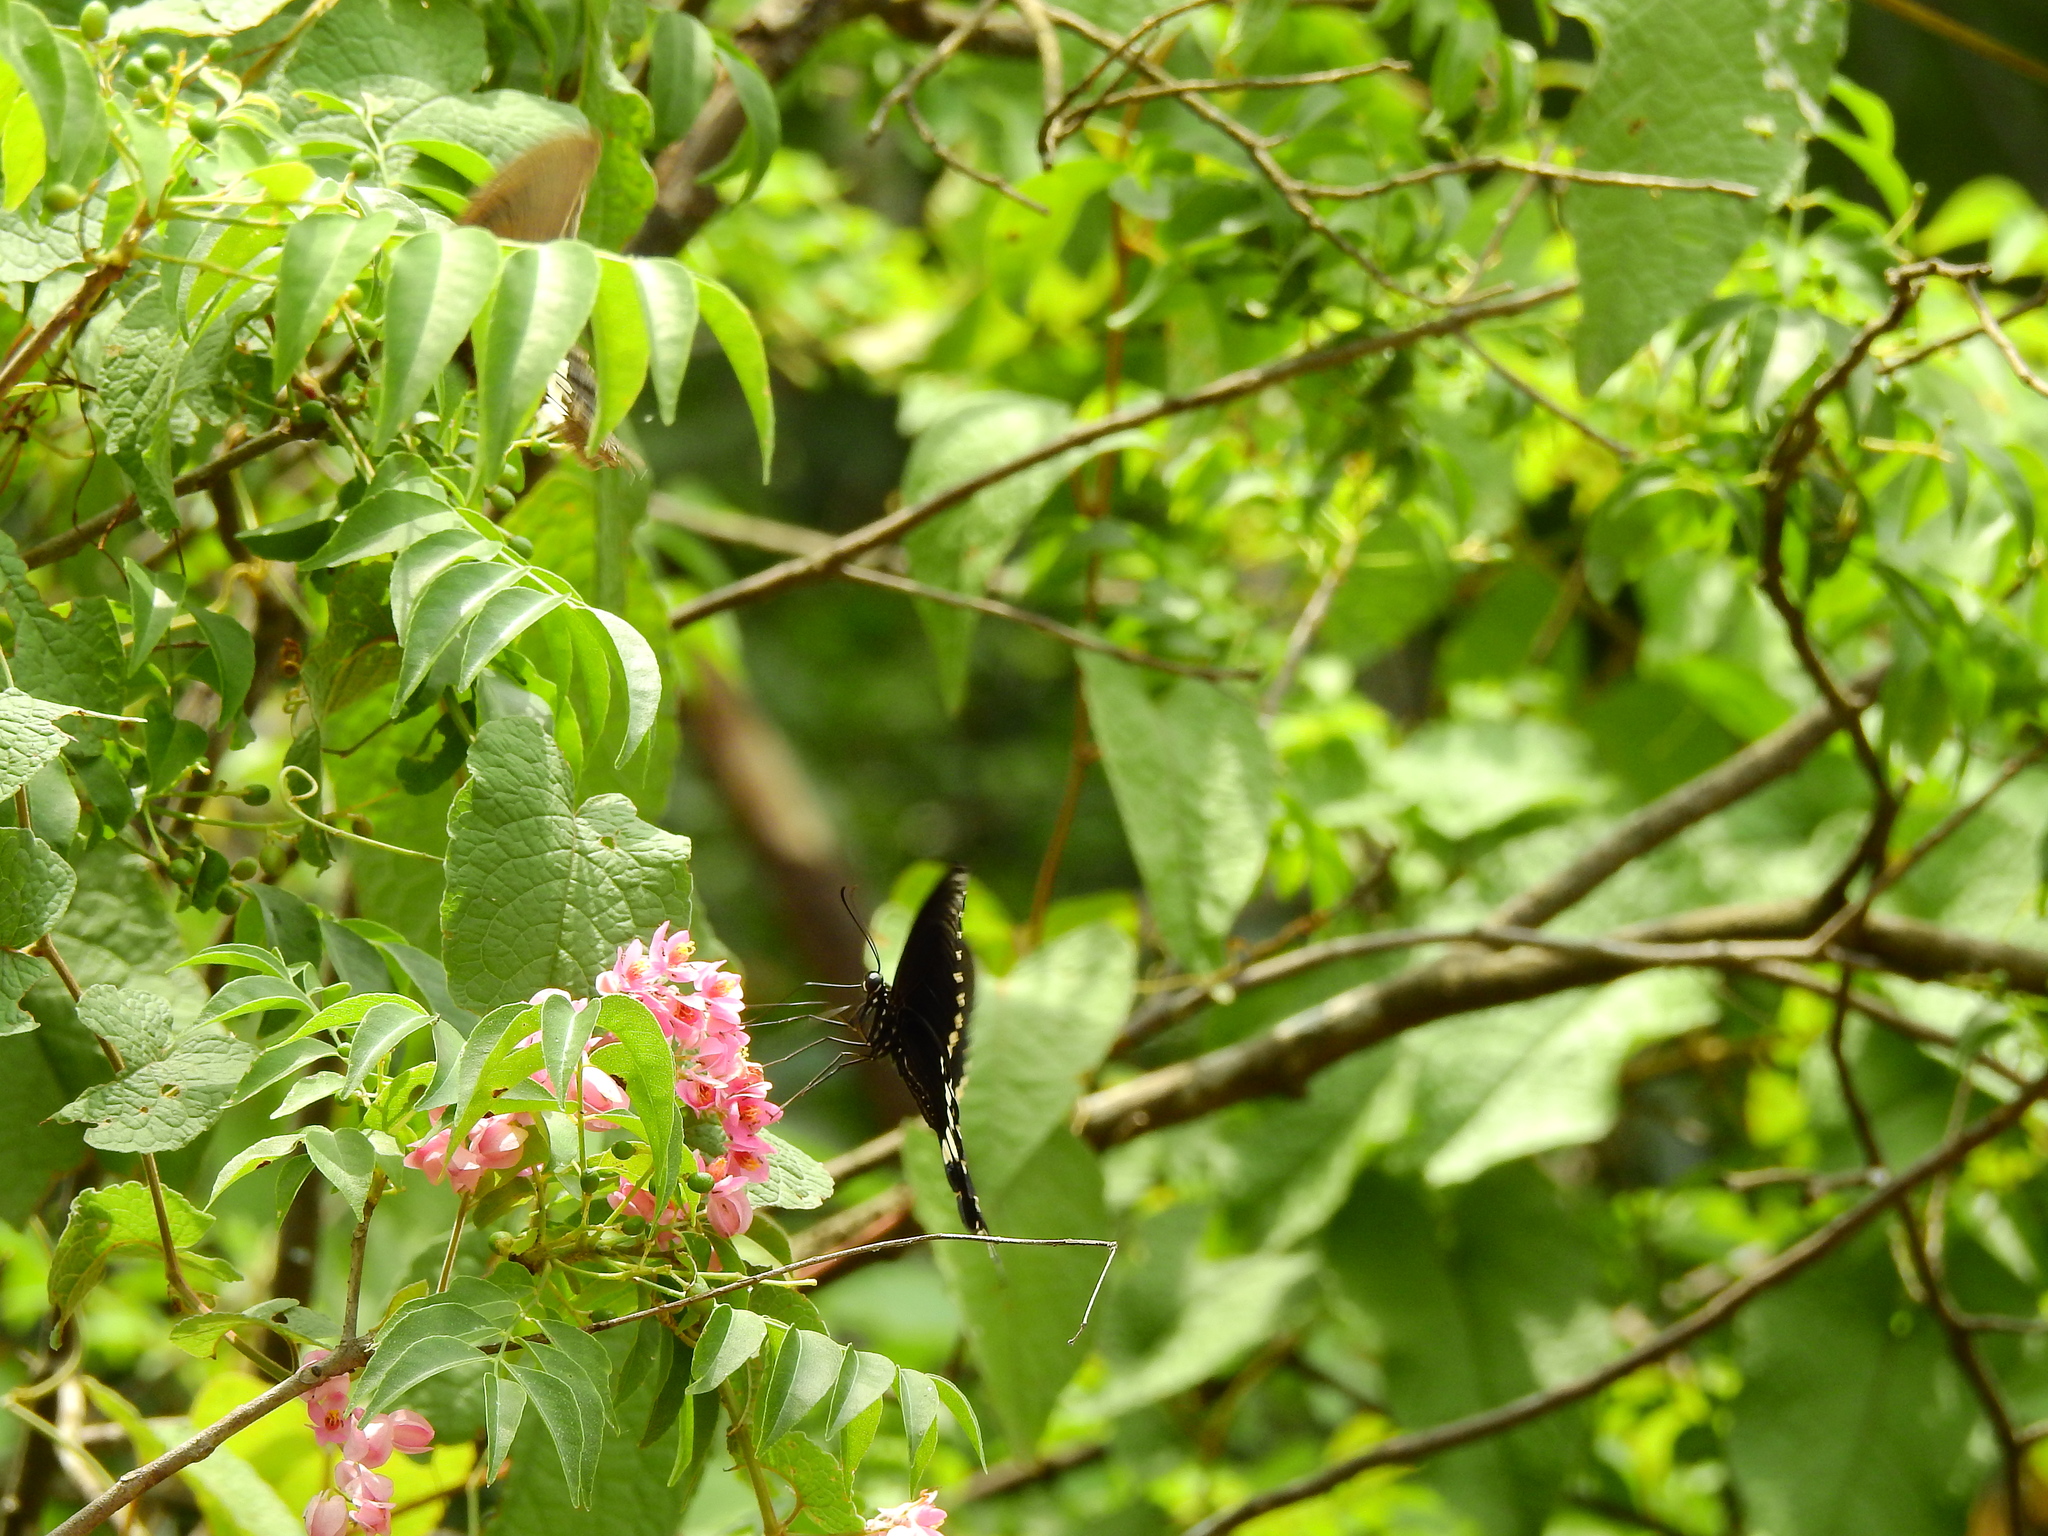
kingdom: Animalia
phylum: Arthropoda
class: Insecta
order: Lepidoptera
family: Papilionidae
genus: Papilio
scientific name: Papilio polytes
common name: Common mormon
